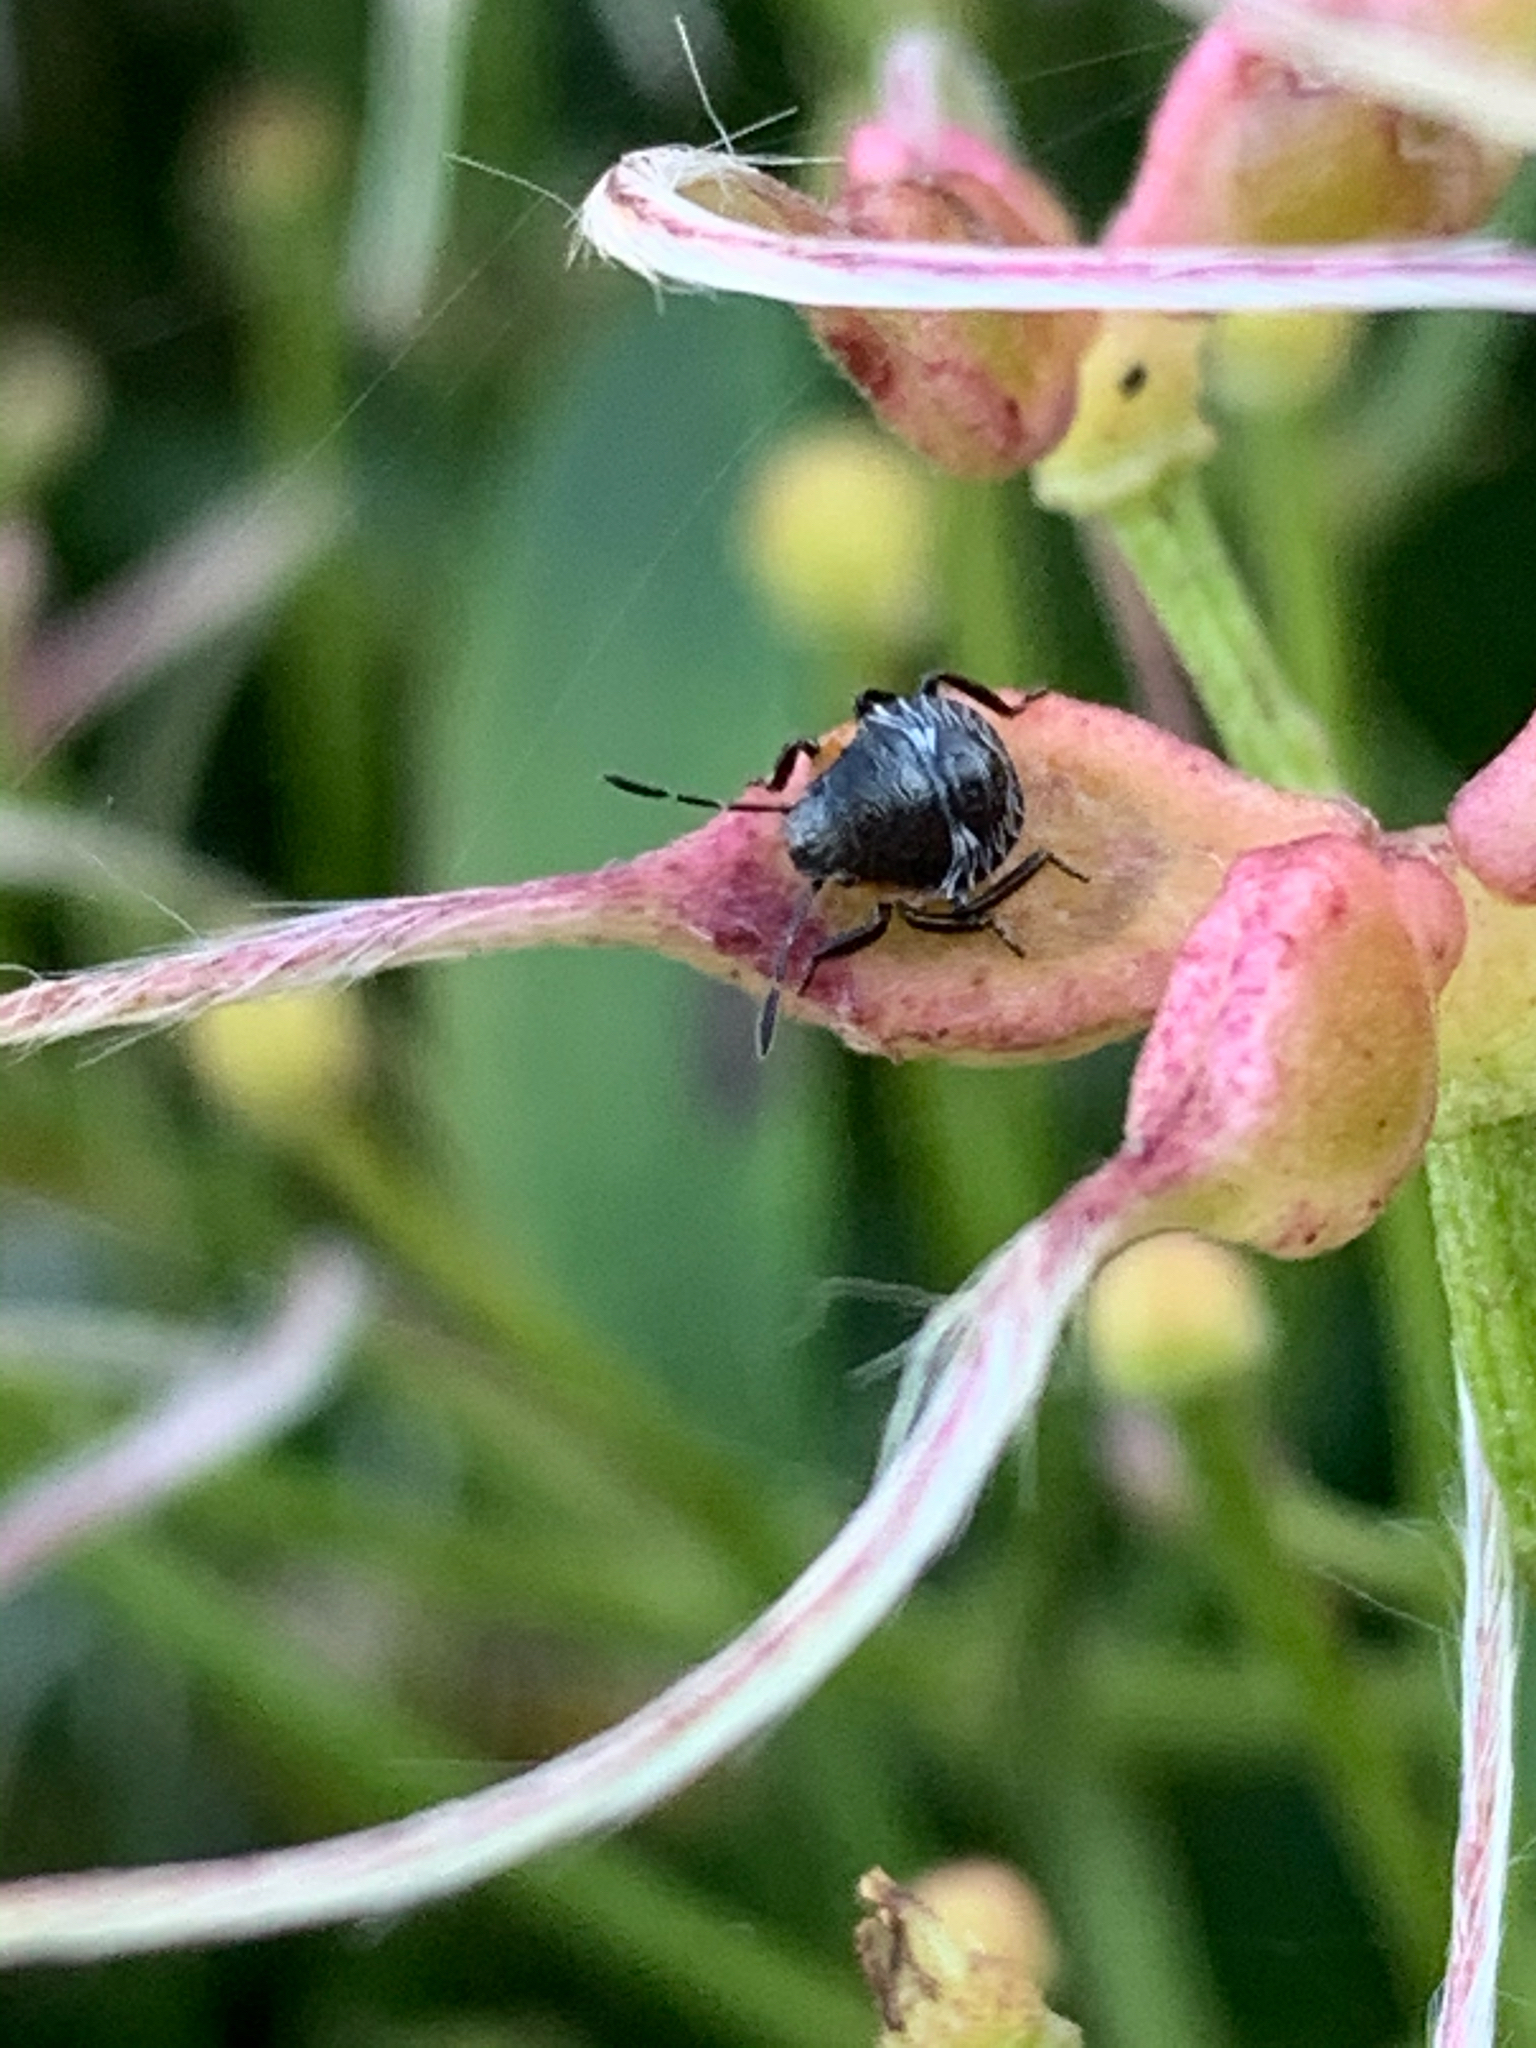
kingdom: Animalia
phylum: Arthropoda
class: Insecta
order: Hemiptera
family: Pentatomidae
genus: Chinavia
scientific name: Chinavia hilaris
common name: Green stink bug
